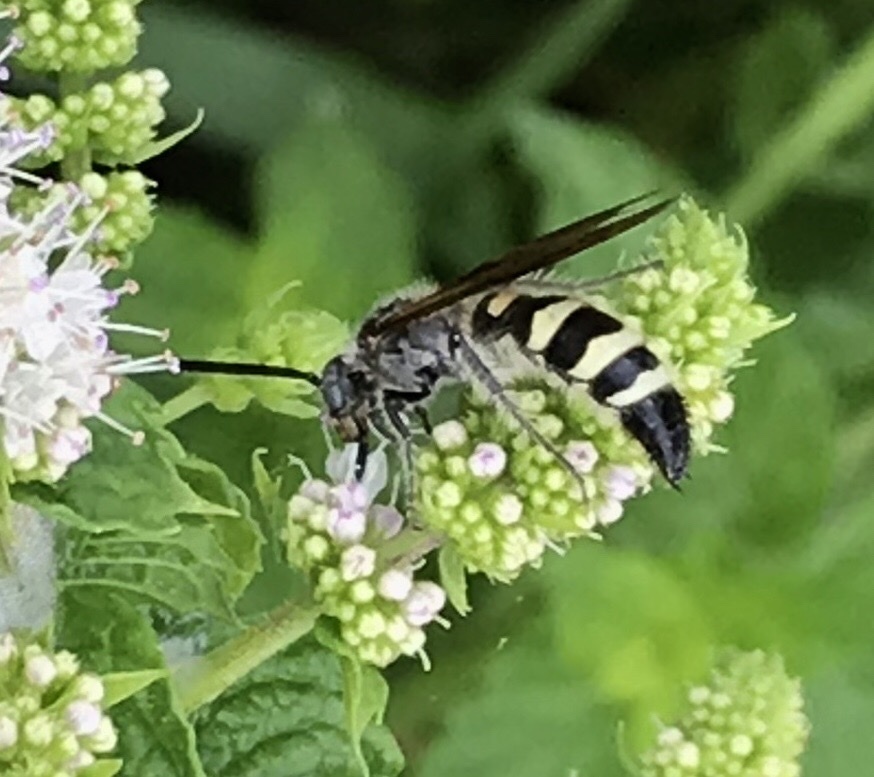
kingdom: Animalia
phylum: Arthropoda
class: Insecta
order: Hymenoptera
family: Scoliidae
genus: Dielis
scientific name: Dielis
